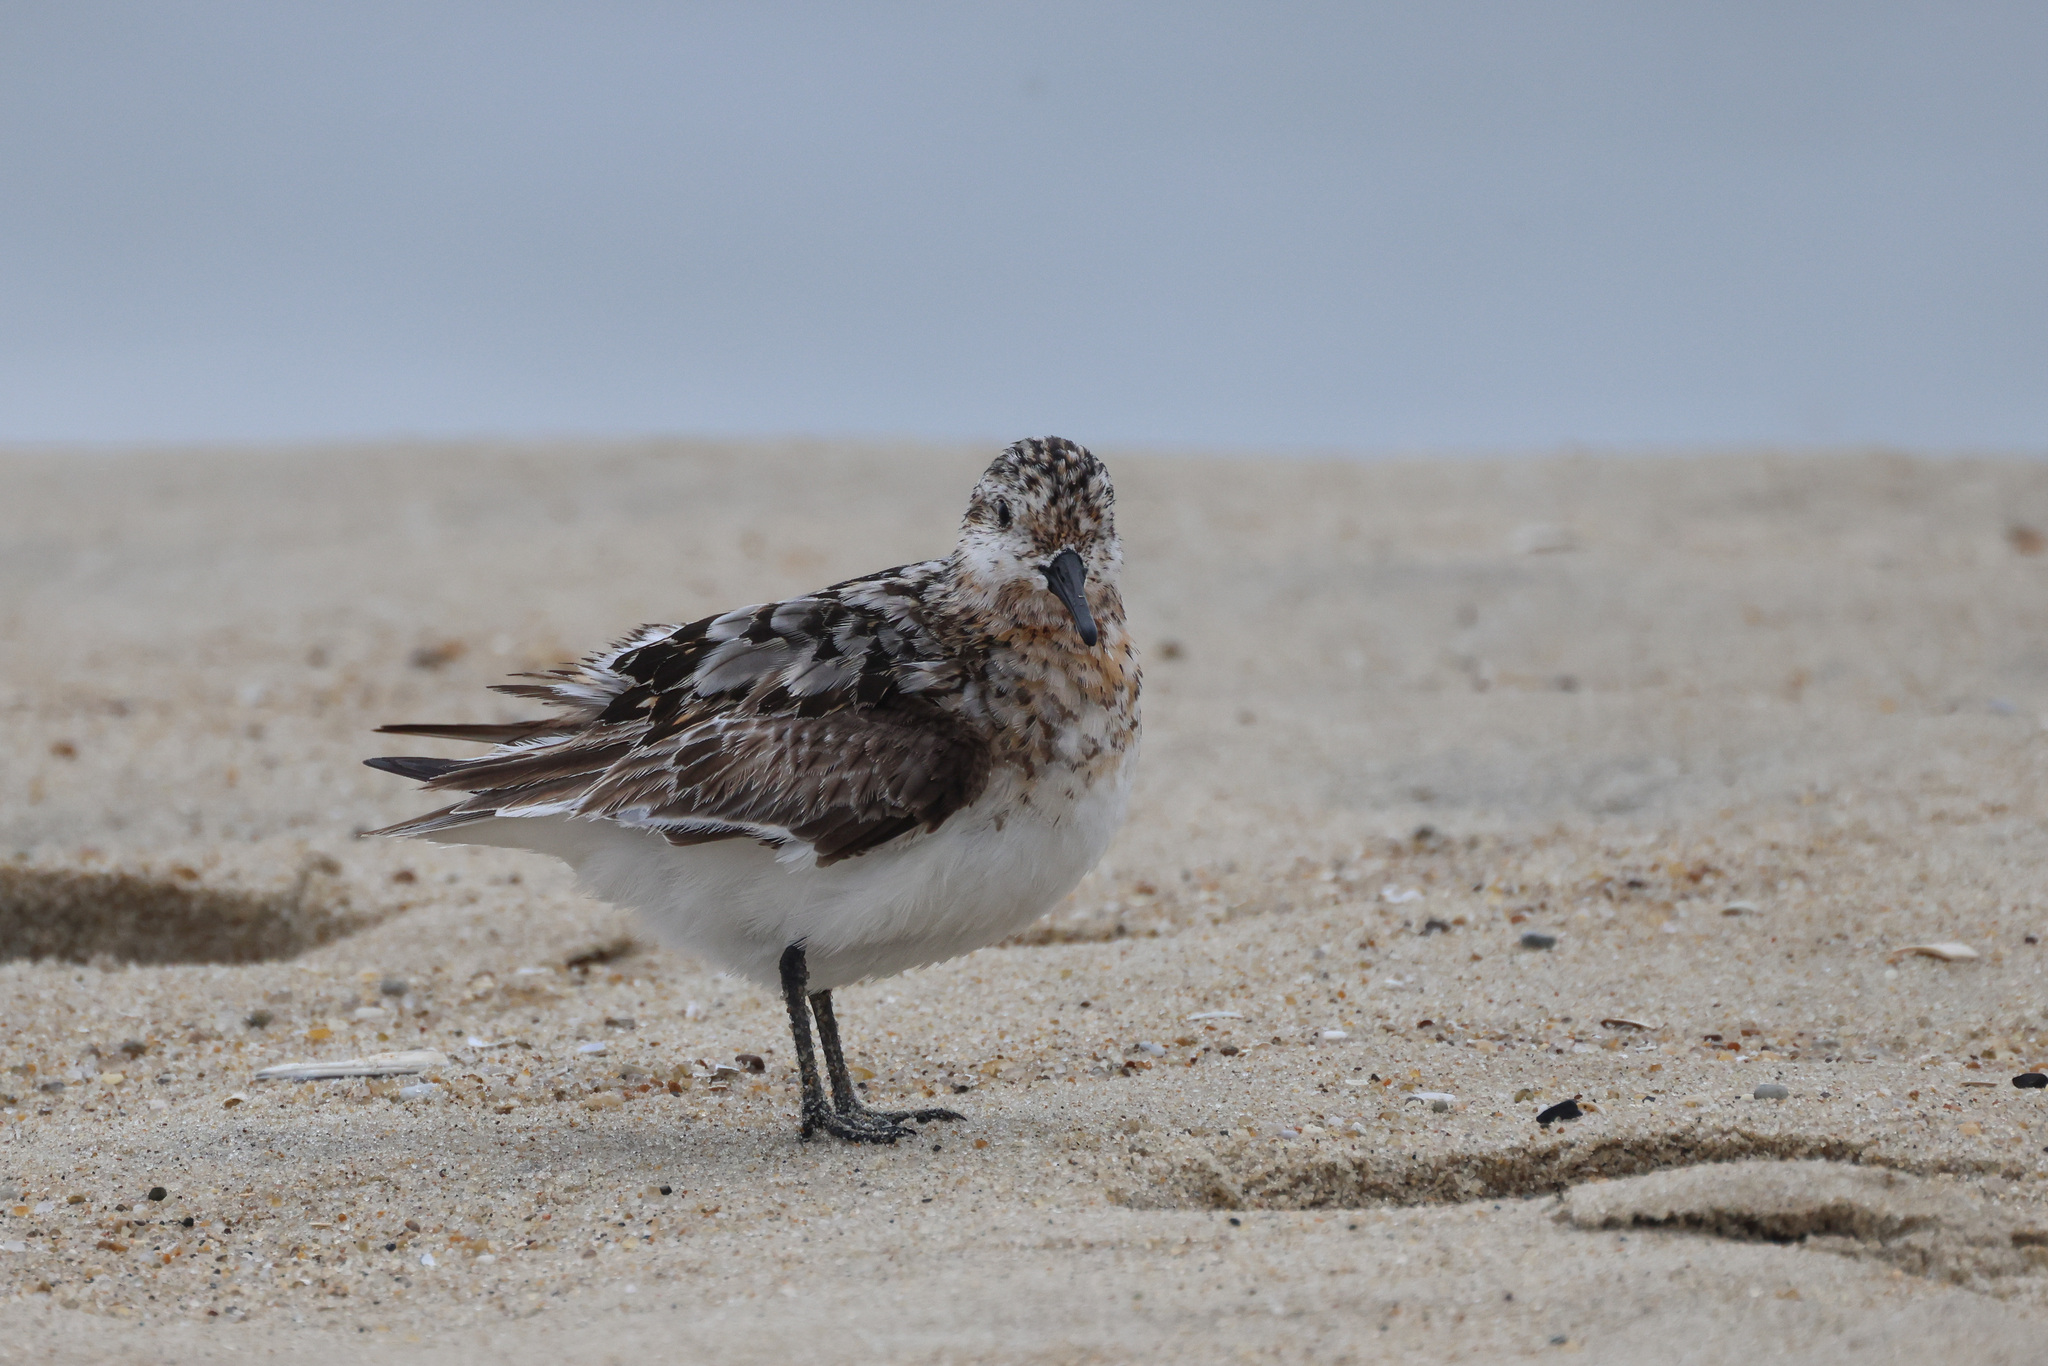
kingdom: Animalia
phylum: Chordata
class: Aves
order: Charadriiformes
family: Scolopacidae
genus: Calidris
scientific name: Calidris alba
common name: Sanderling
